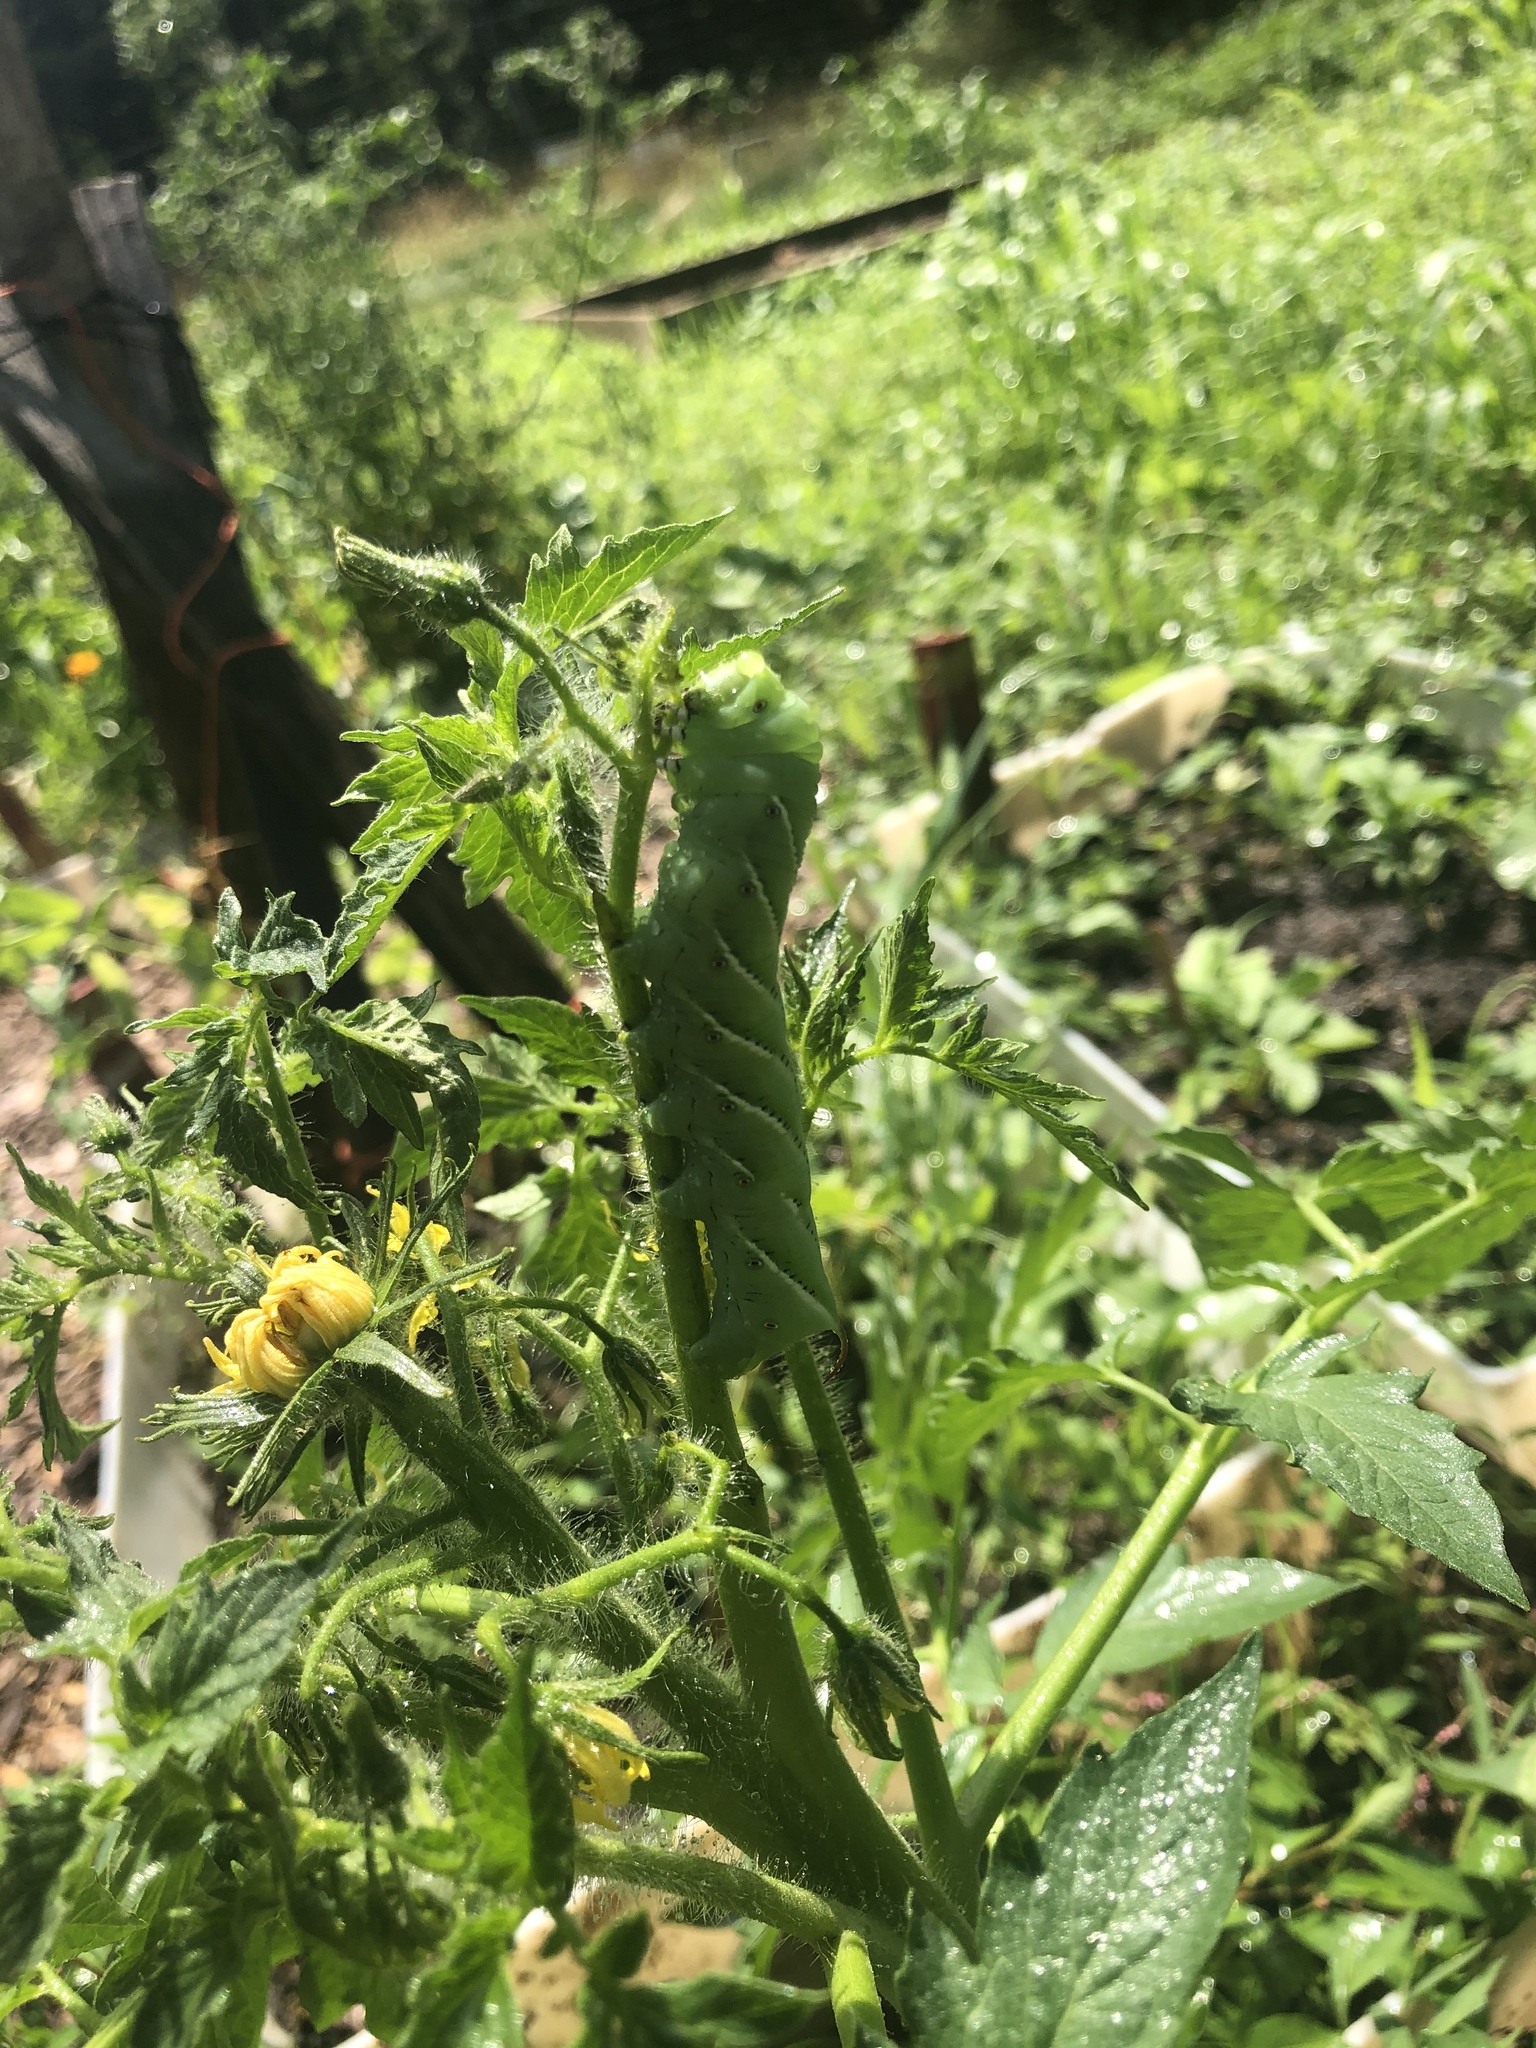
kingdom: Animalia
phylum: Arthropoda
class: Insecta
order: Lepidoptera
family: Sphingidae
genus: Manduca
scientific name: Manduca sexta
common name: Carolina sphinx
